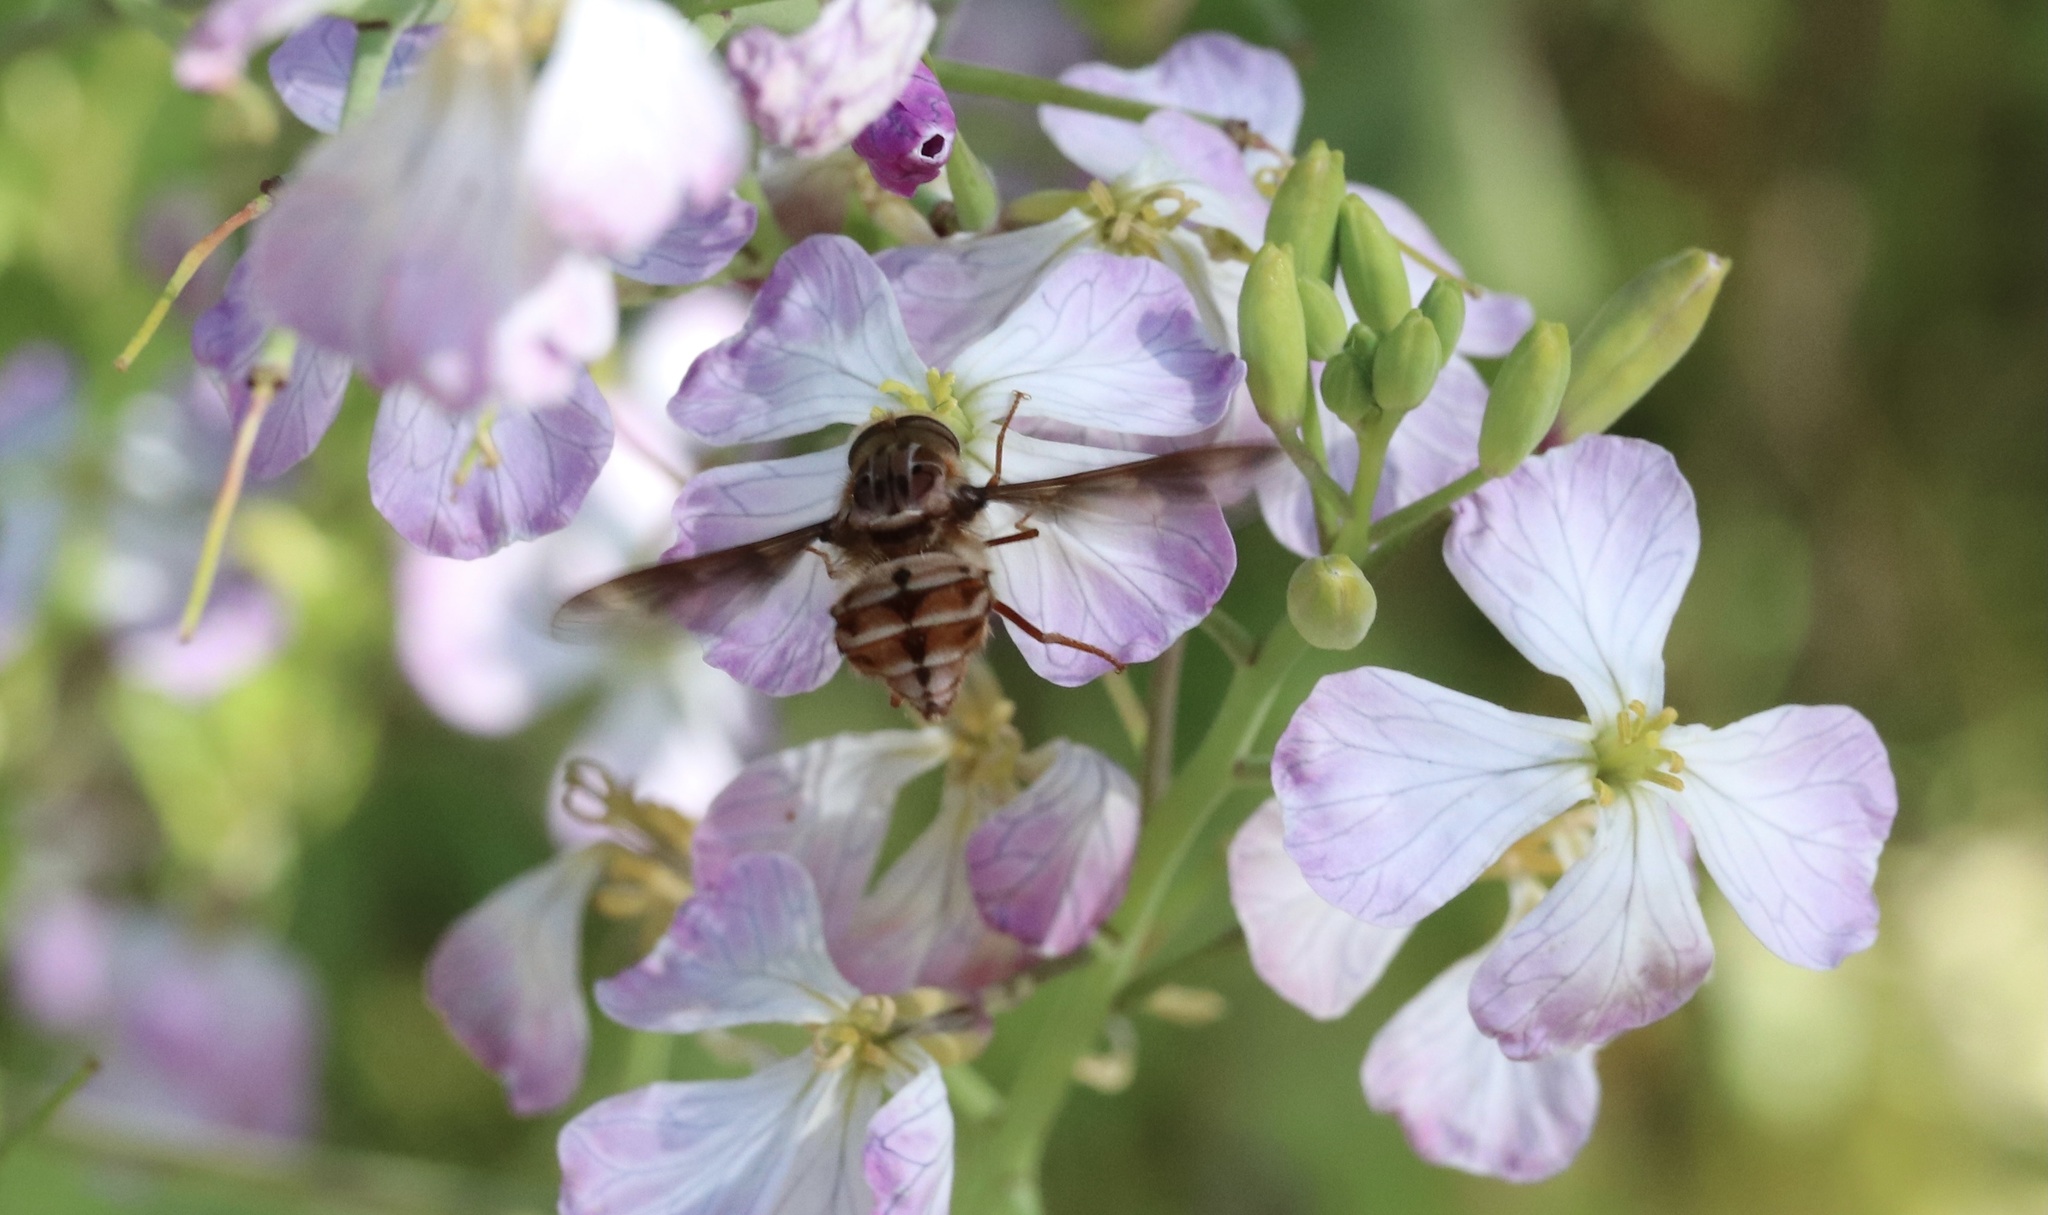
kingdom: Animalia
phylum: Arthropoda
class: Insecta
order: Diptera
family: Nemestrinidae
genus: Trichophthalma
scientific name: Trichophthalma nubipennis
